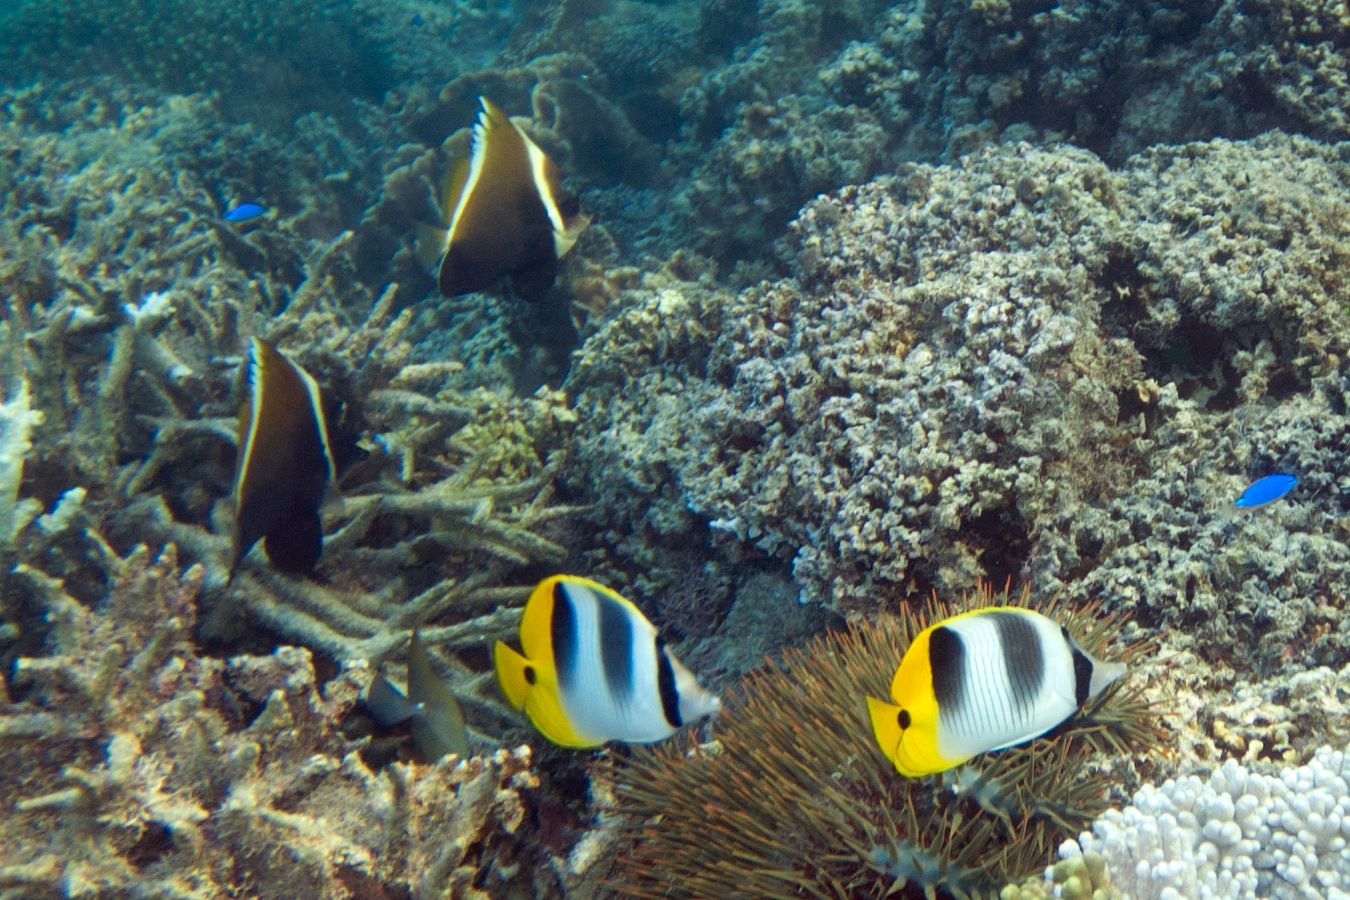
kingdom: Animalia
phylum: Chordata
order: Perciformes
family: Chaetodontidae
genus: Chaetodon
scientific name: Chaetodon ulietensis
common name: Pacific double-saddle butterflyfish
